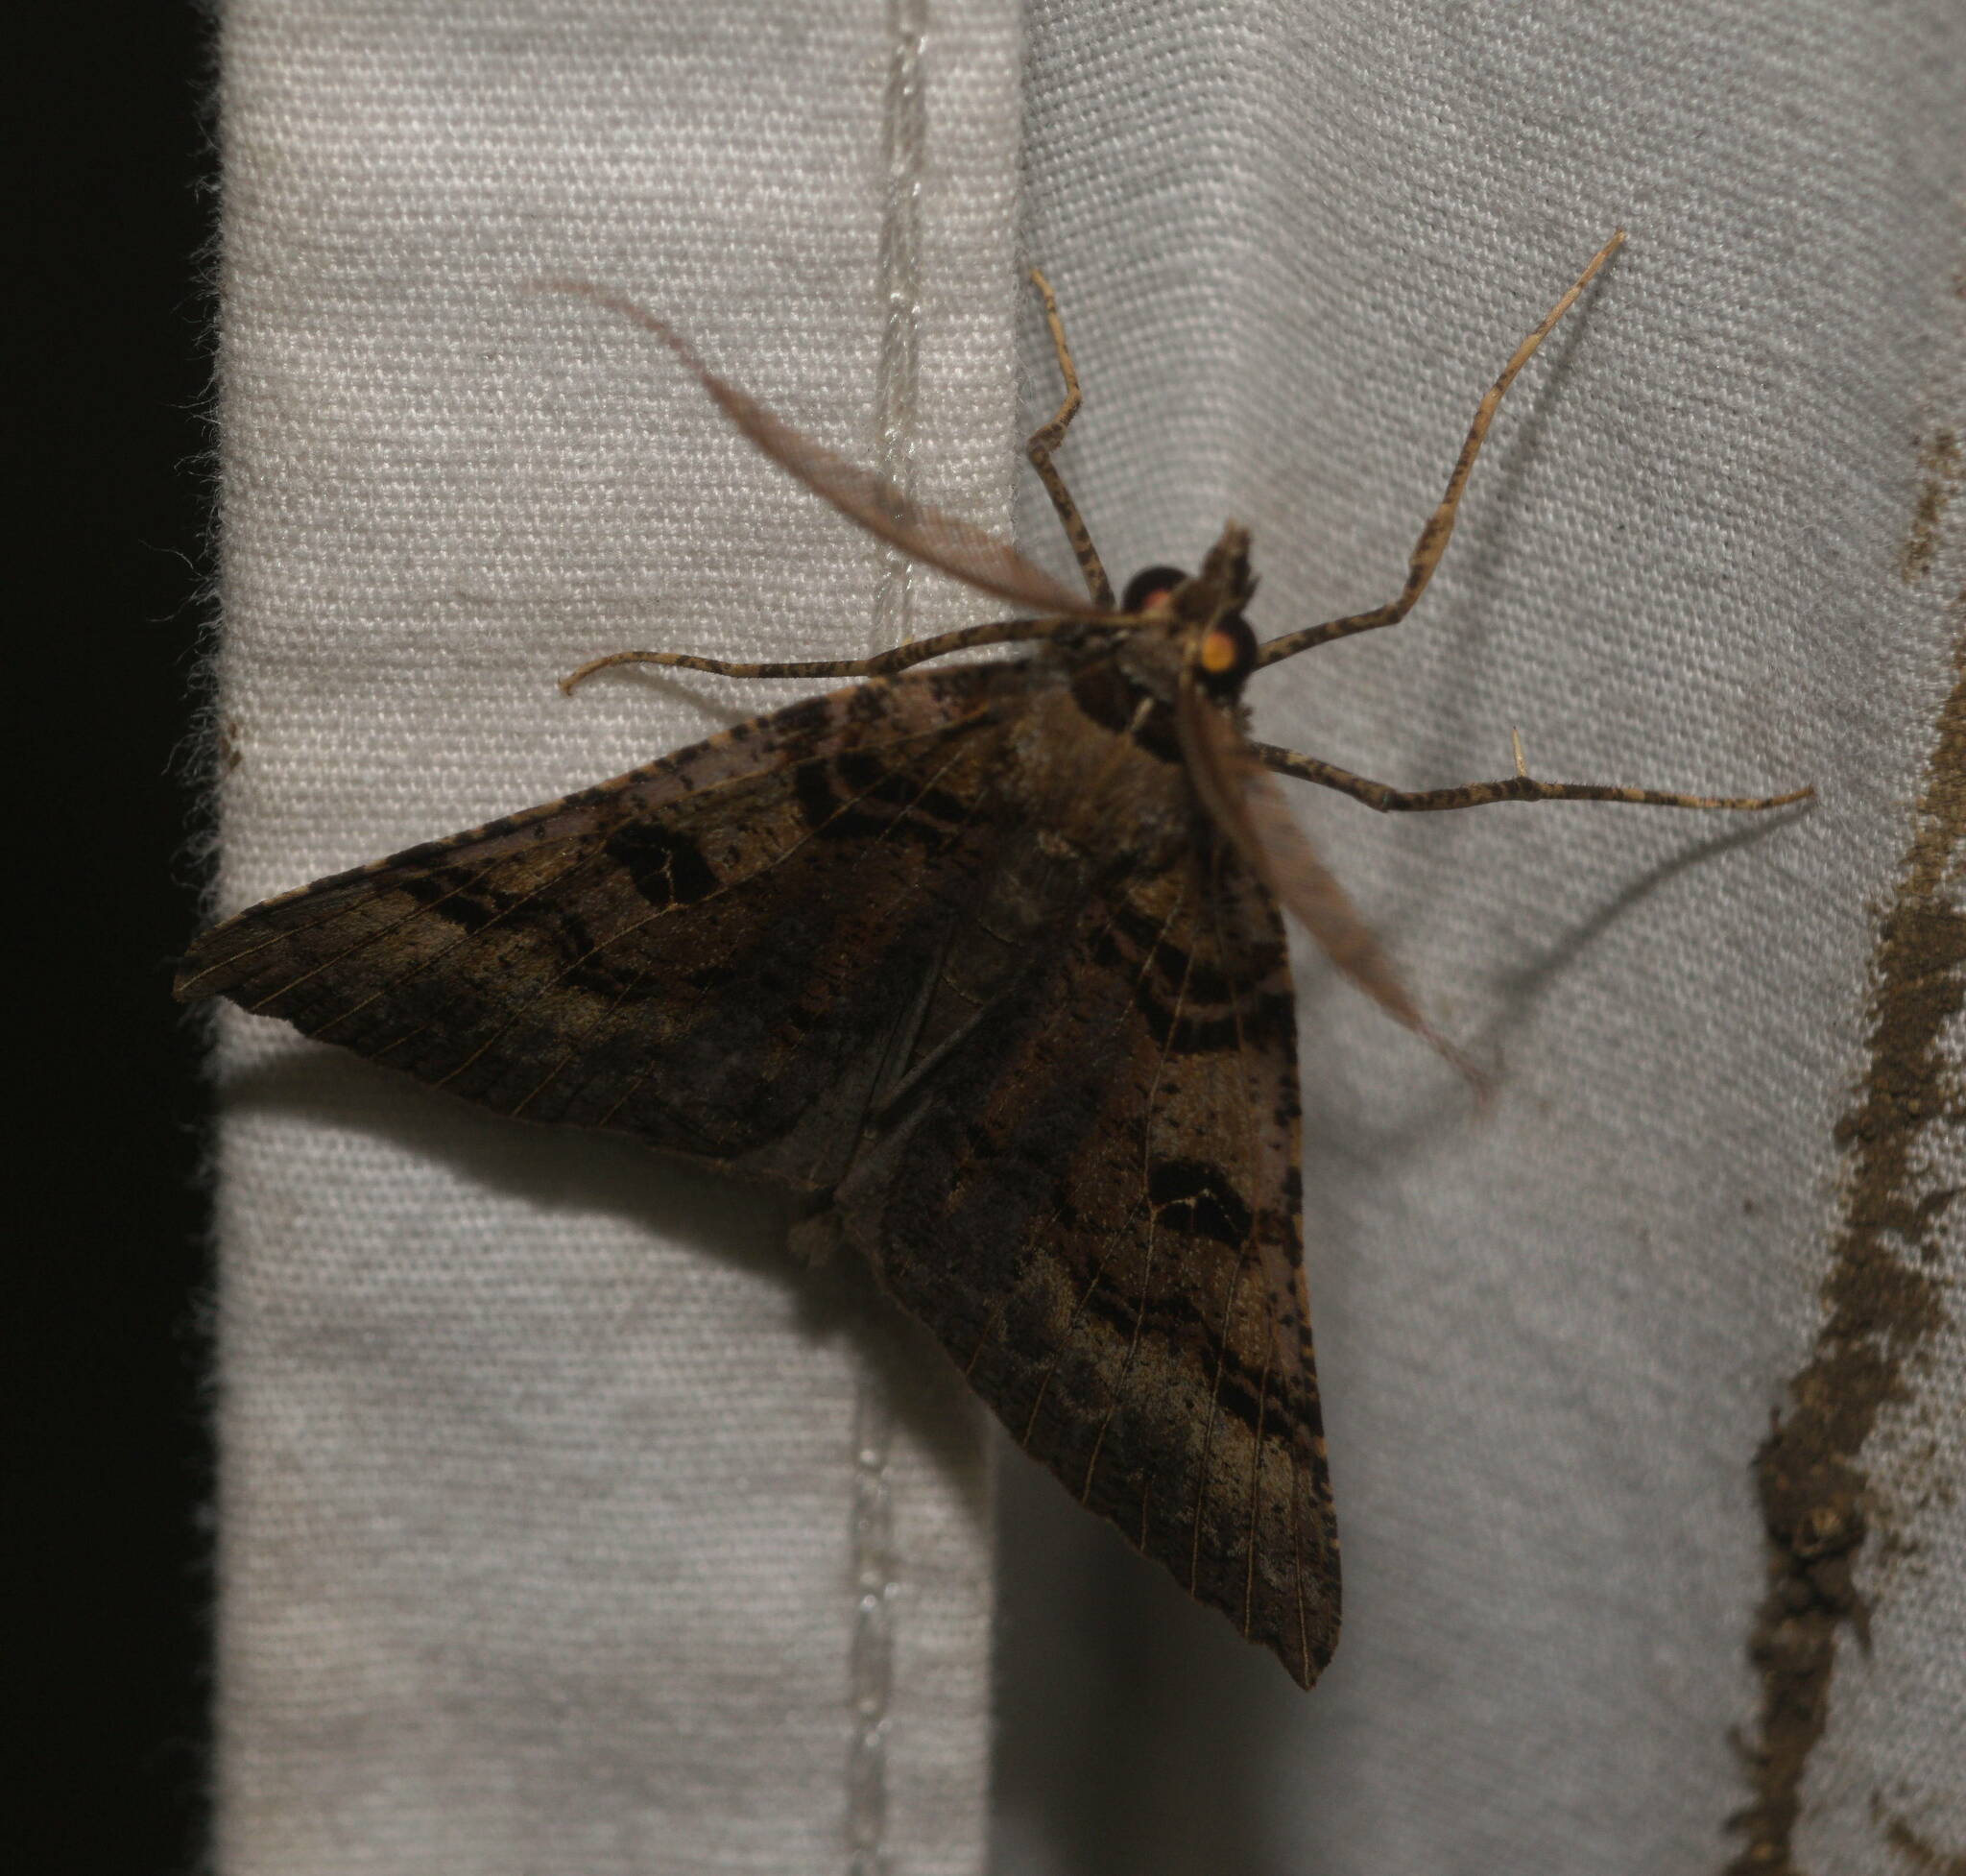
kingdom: Animalia
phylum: Arthropoda
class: Insecta
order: Lepidoptera
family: Geometridae
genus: Scotorythra
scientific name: Scotorythra dissotis
